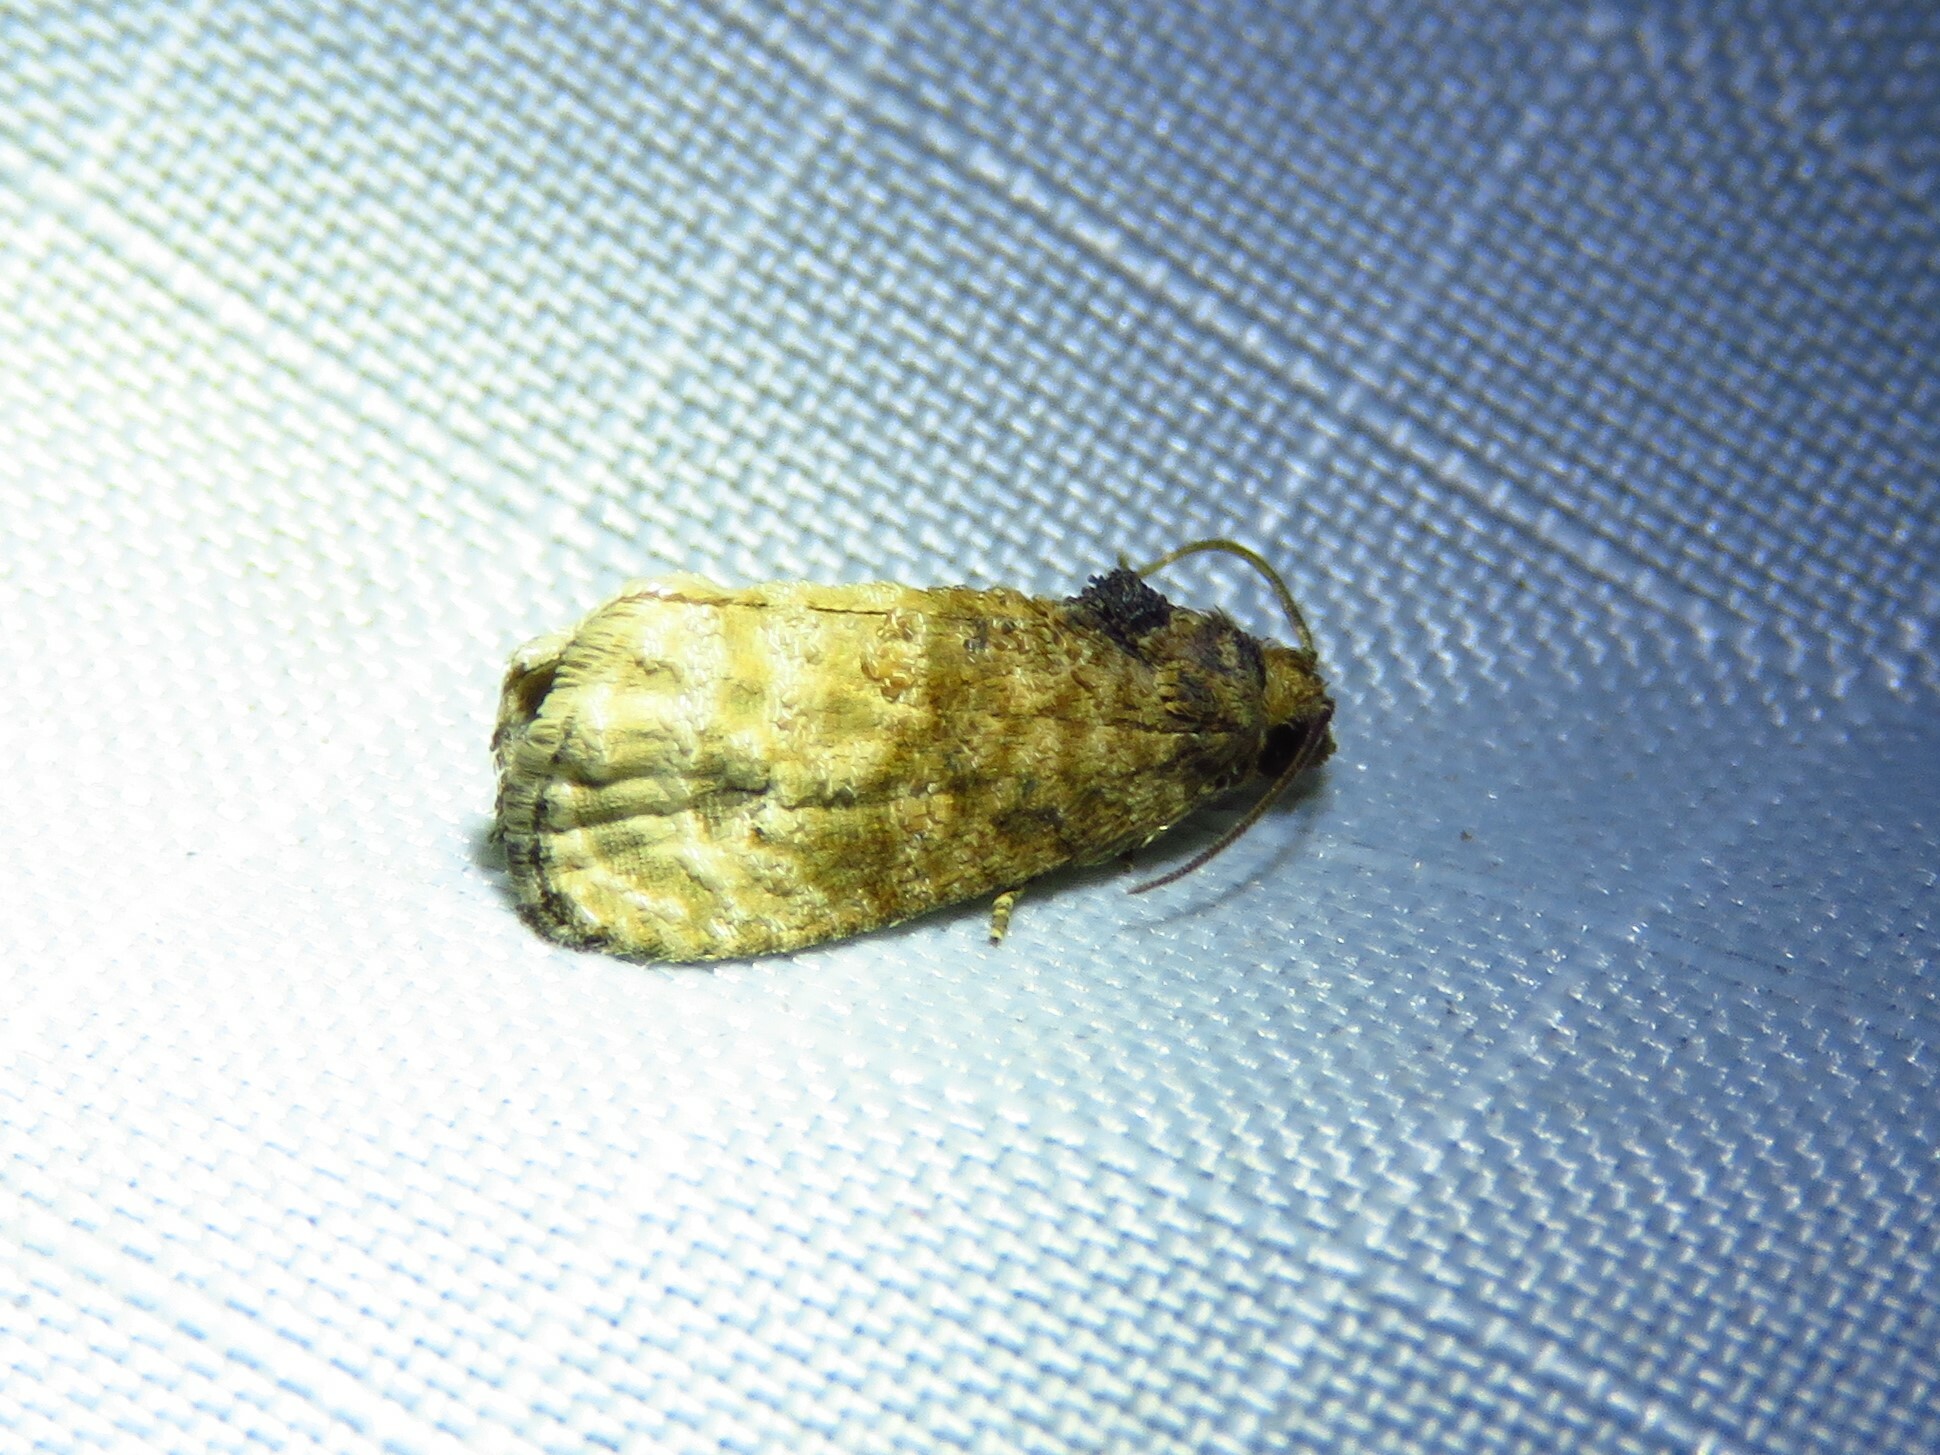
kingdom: Animalia
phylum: Arthropoda
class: Insecta
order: Lepidoptera
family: Tortricidae
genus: Ecdytolopha
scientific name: Ecdytolopha mana
